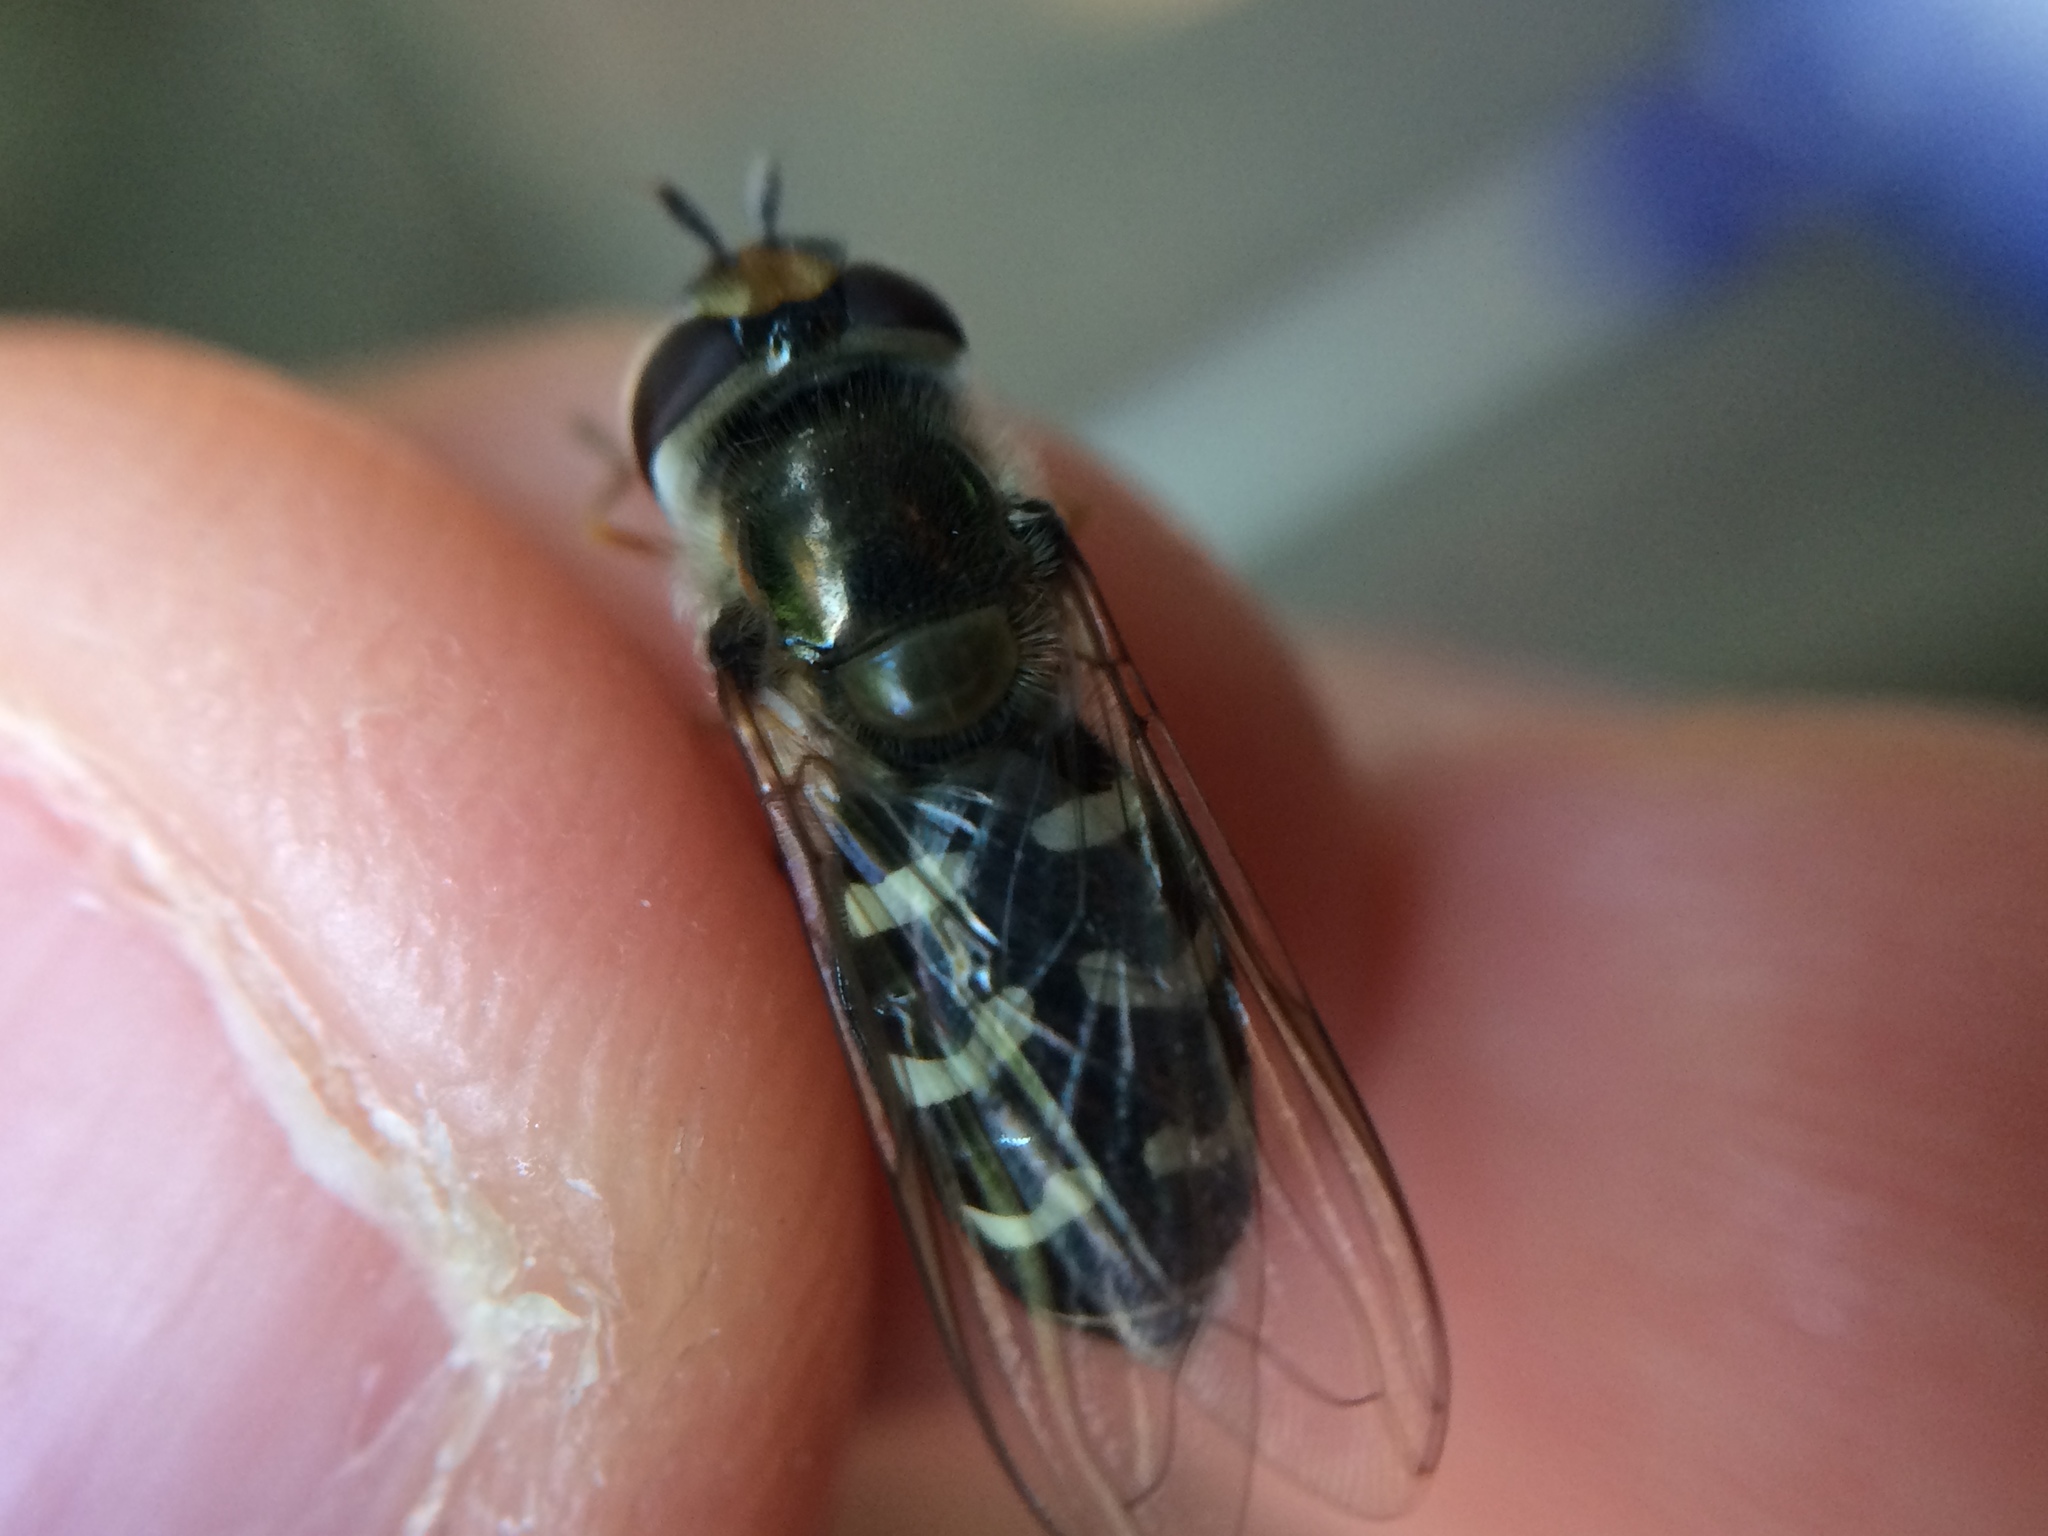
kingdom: Animalia
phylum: Arthropoda
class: Insecta
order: Diptera
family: Syrphidae
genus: Scaeva
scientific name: Scaeva affinis
